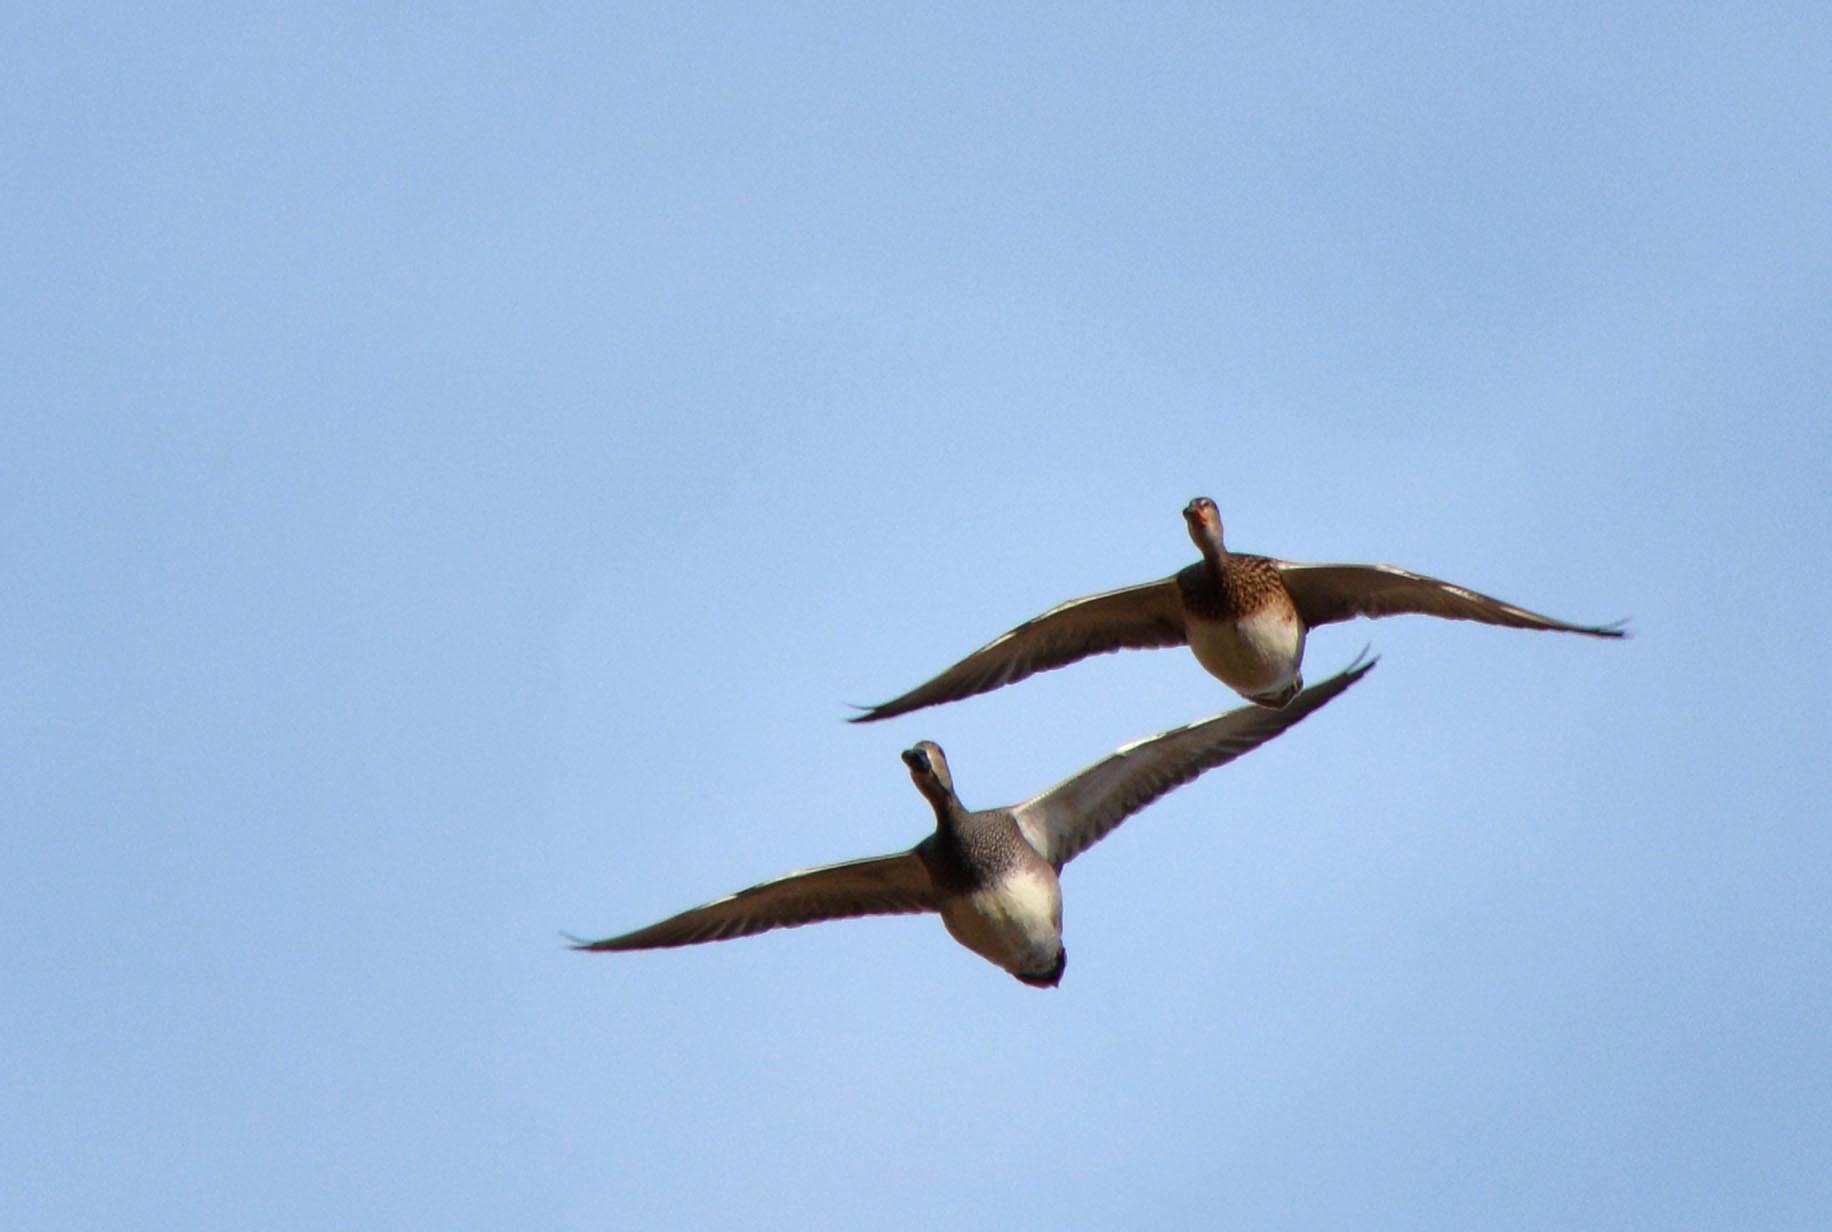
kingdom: Animalia
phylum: Chordata
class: Aves
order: Anseriformes
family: Anatidae
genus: Mareca
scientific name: Mareca strepera
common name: Gadwall
